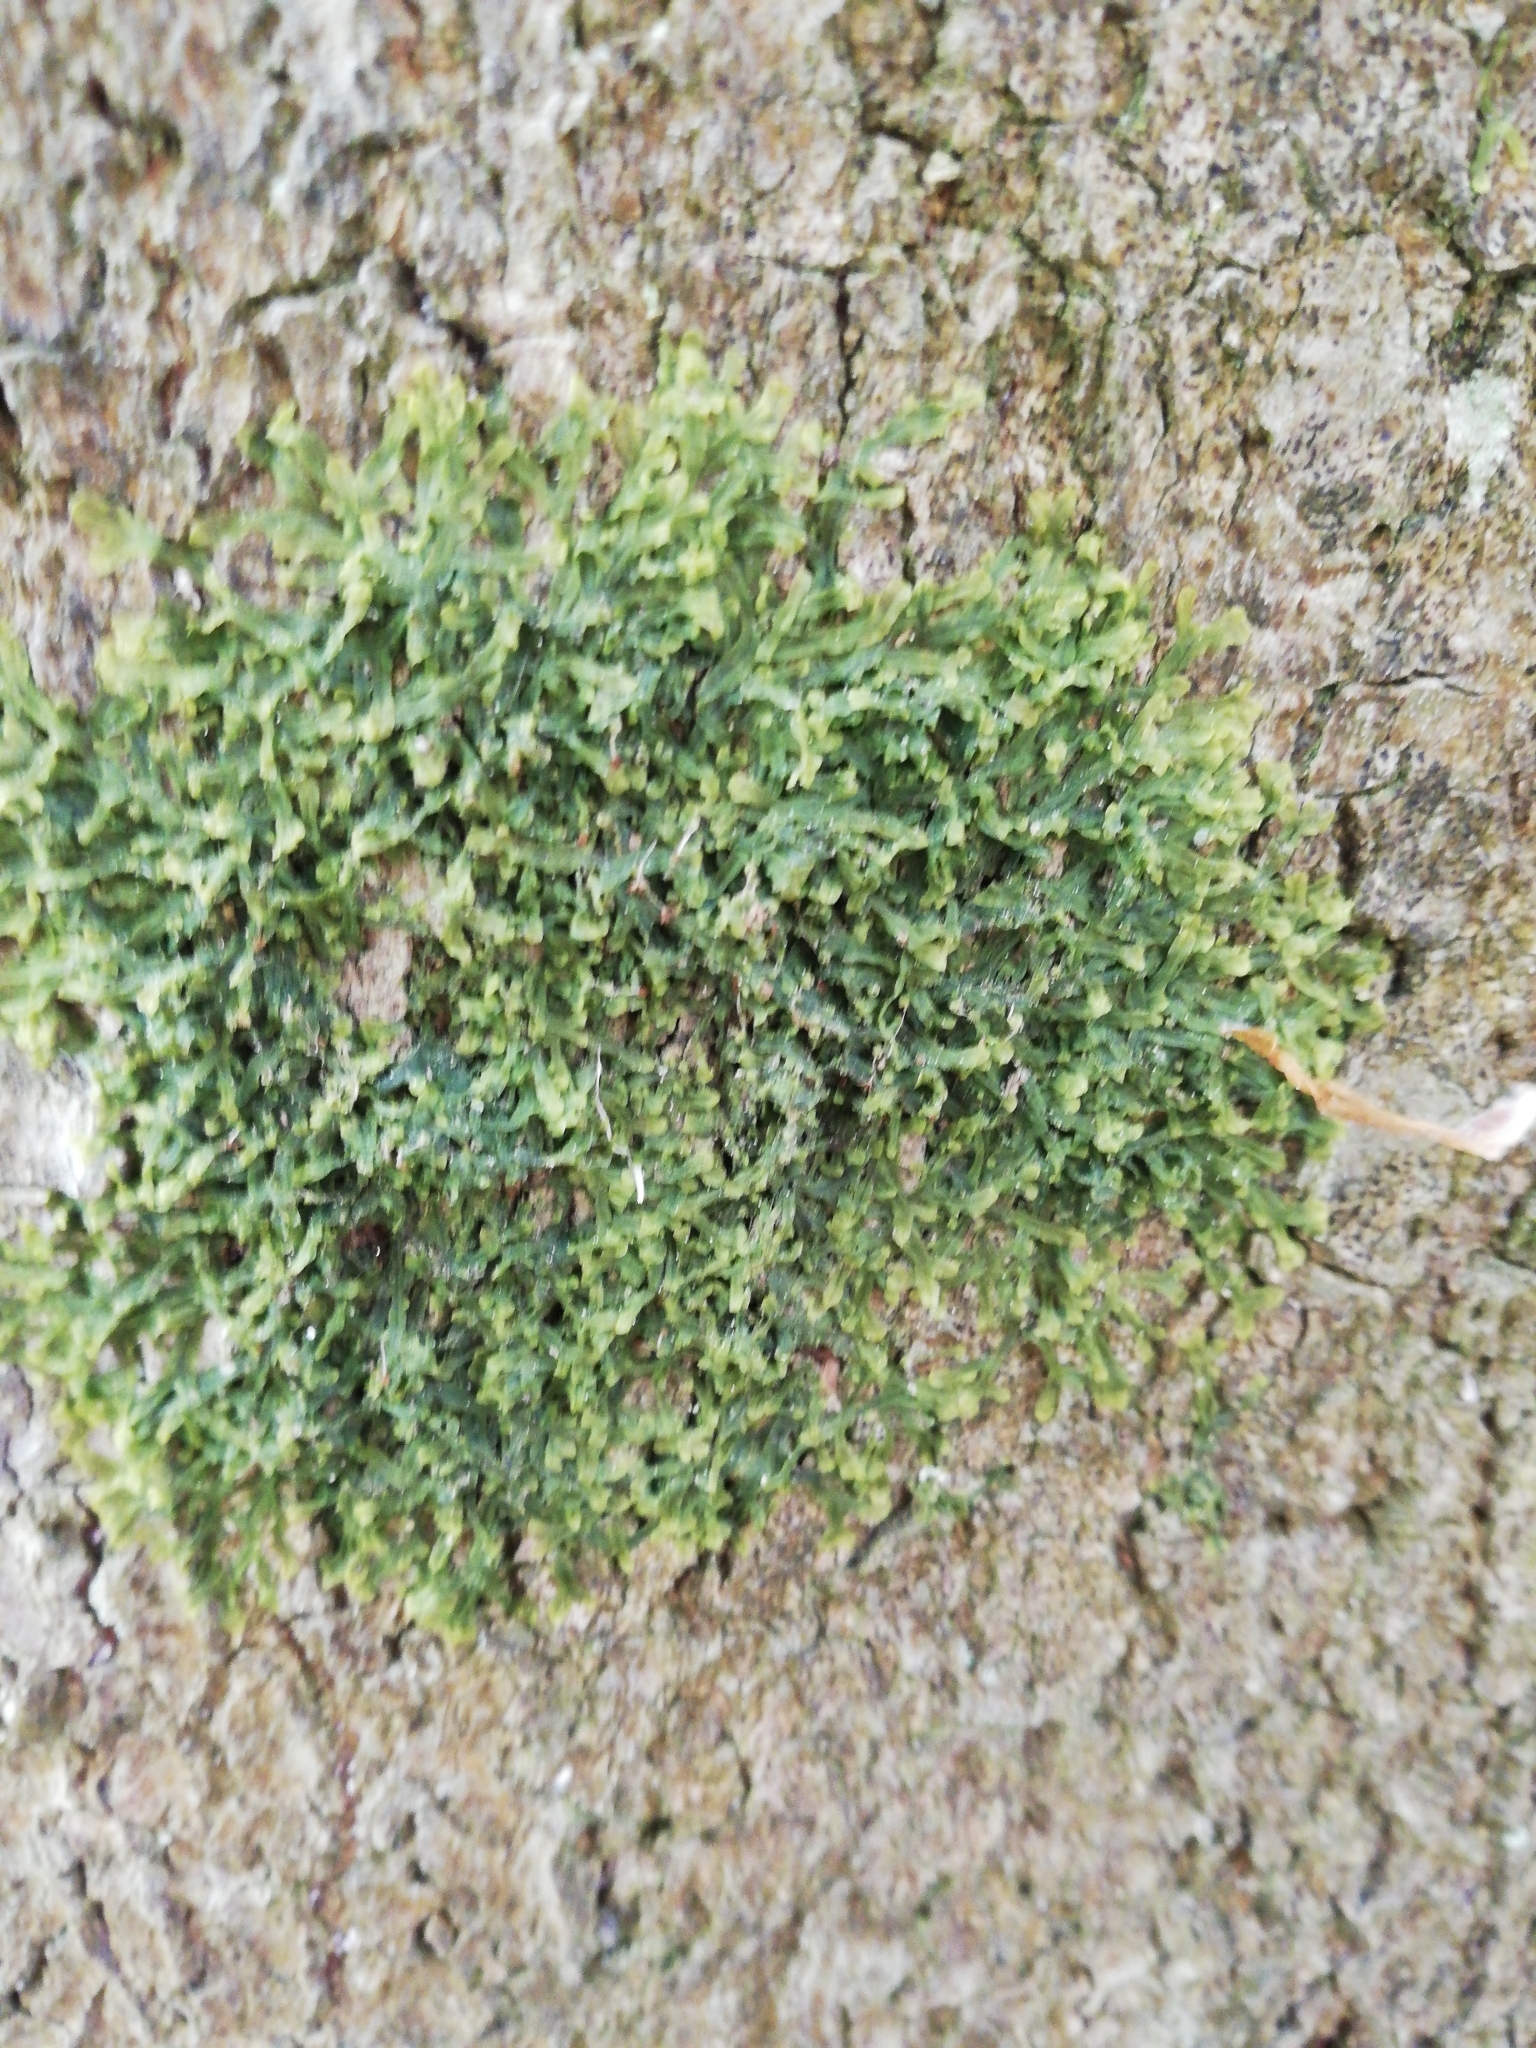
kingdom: Plantae
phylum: Marchantiophyta
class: Jungermanniopsida
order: Metzgeriales
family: Metzgeriaceae
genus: Metzgeria
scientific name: Metzgeria furcata
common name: Forked veilwort
